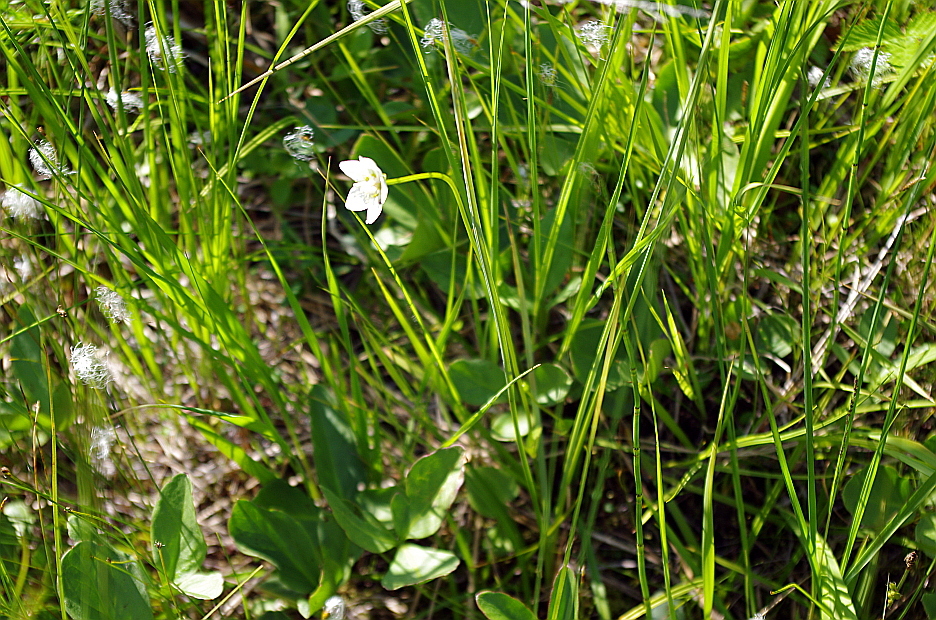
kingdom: Plantae
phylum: Tracheophyta
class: Magnoliopsida
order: Celastrales
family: Parnassiaceae
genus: Parnassia
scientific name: Parnassia palustris
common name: Grass-of-parnassus
